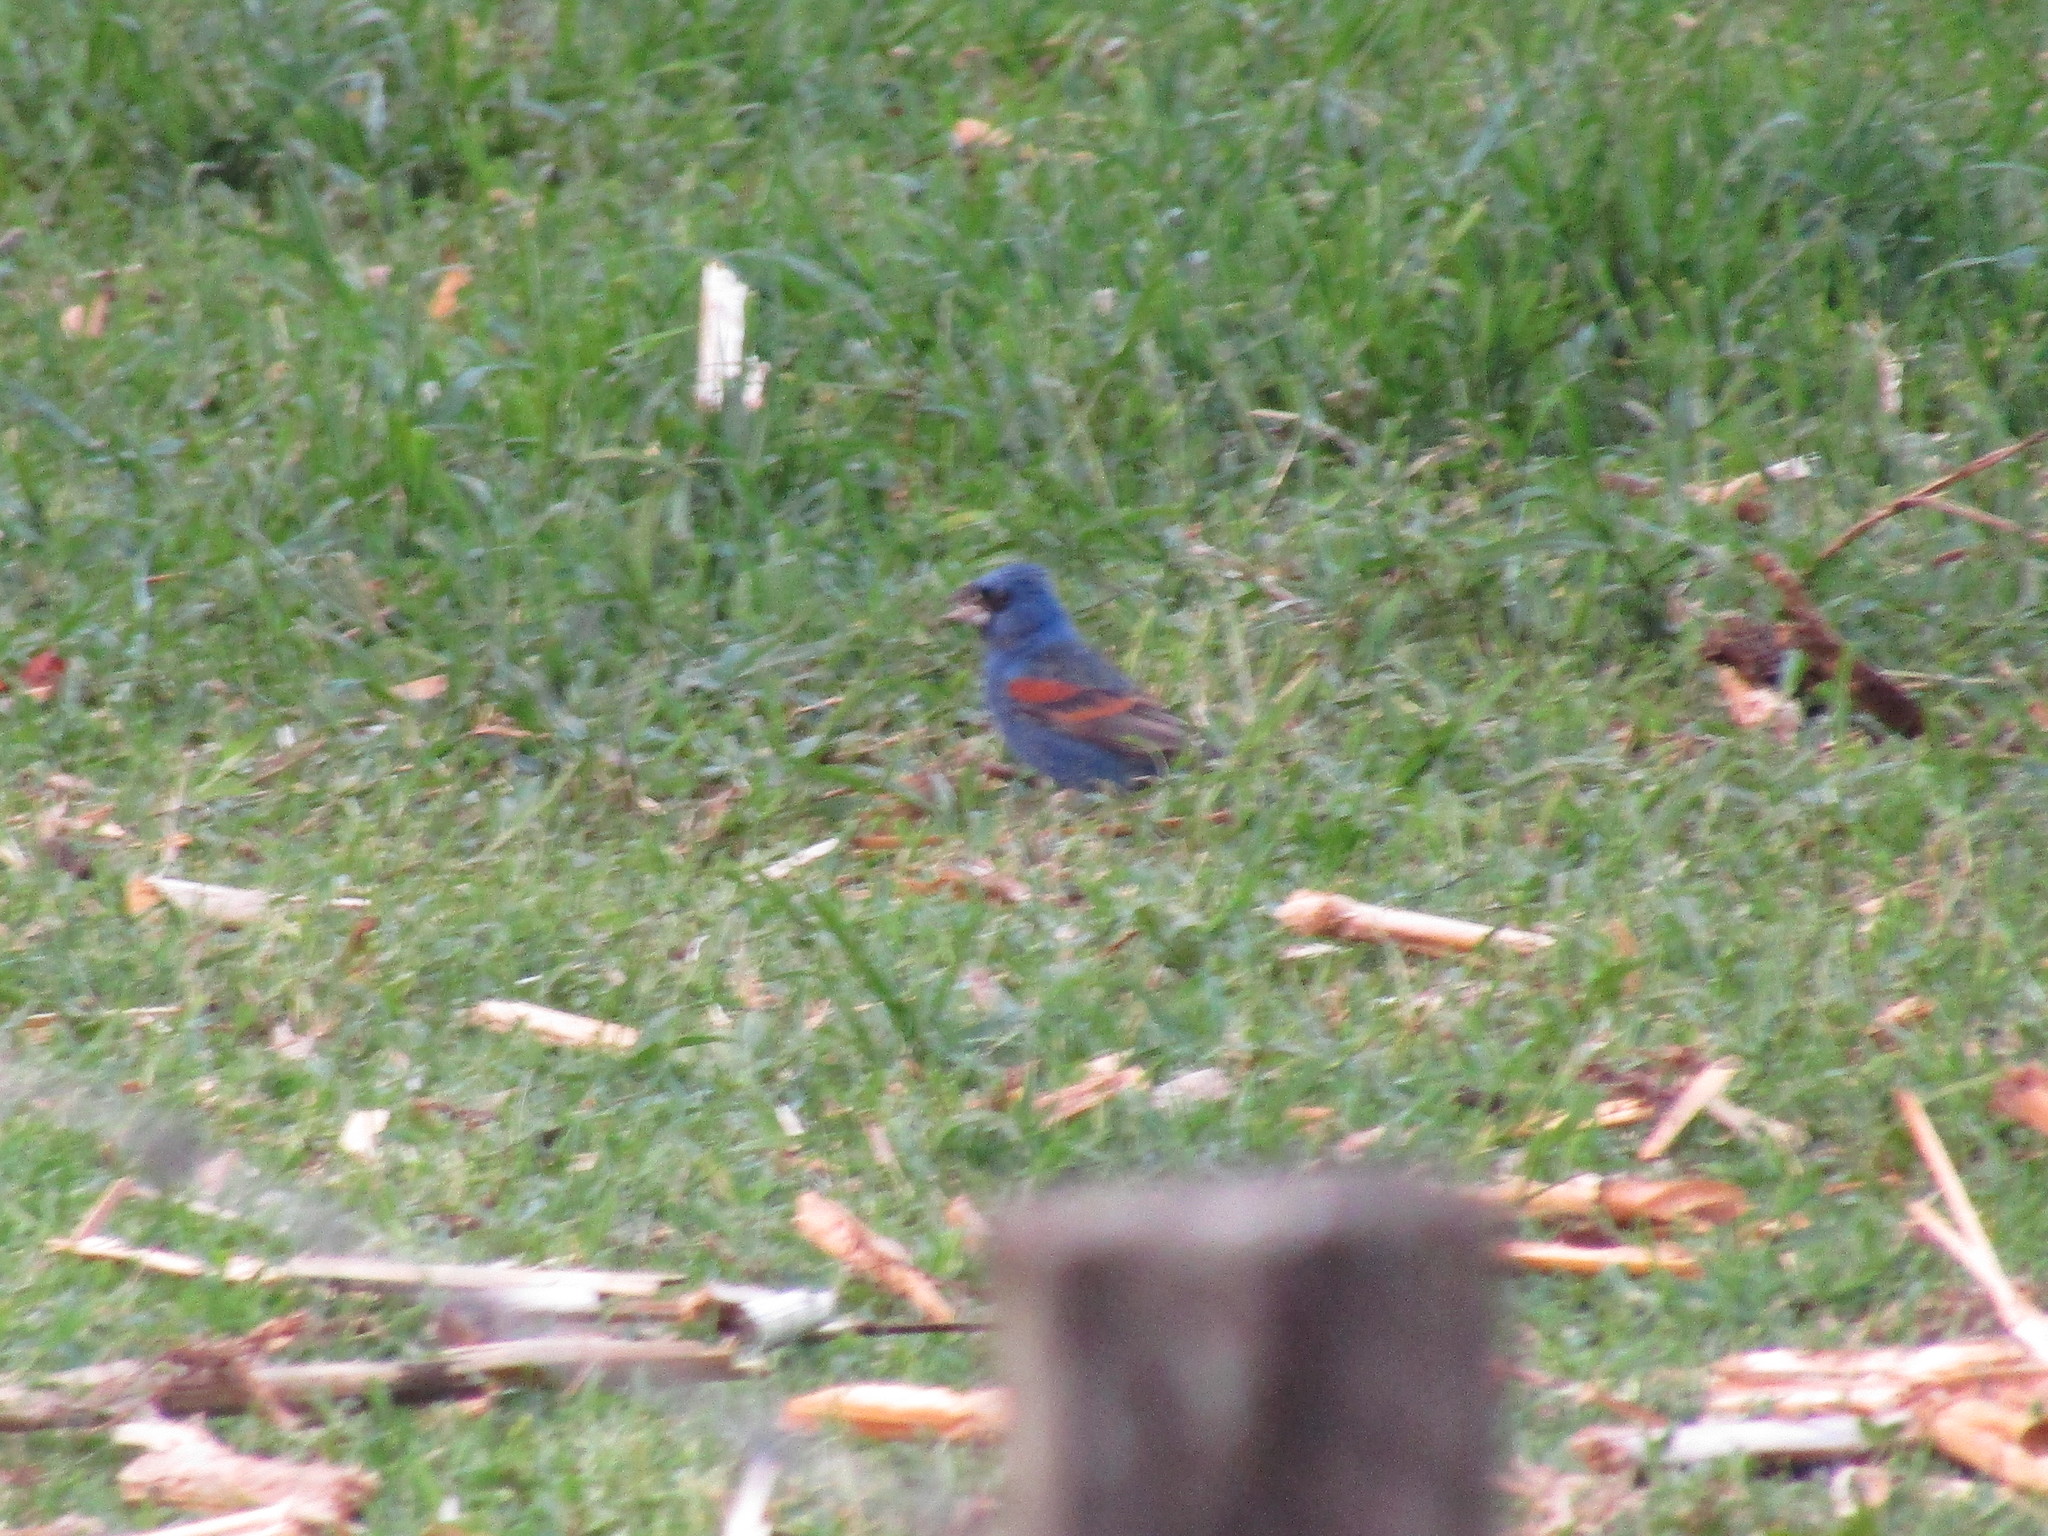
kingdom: Animalia
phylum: Chordata
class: Aves
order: Passeriformes
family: Cardinalidae
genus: Passerina
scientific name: Passerina caerulea
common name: Blue grosbeak
